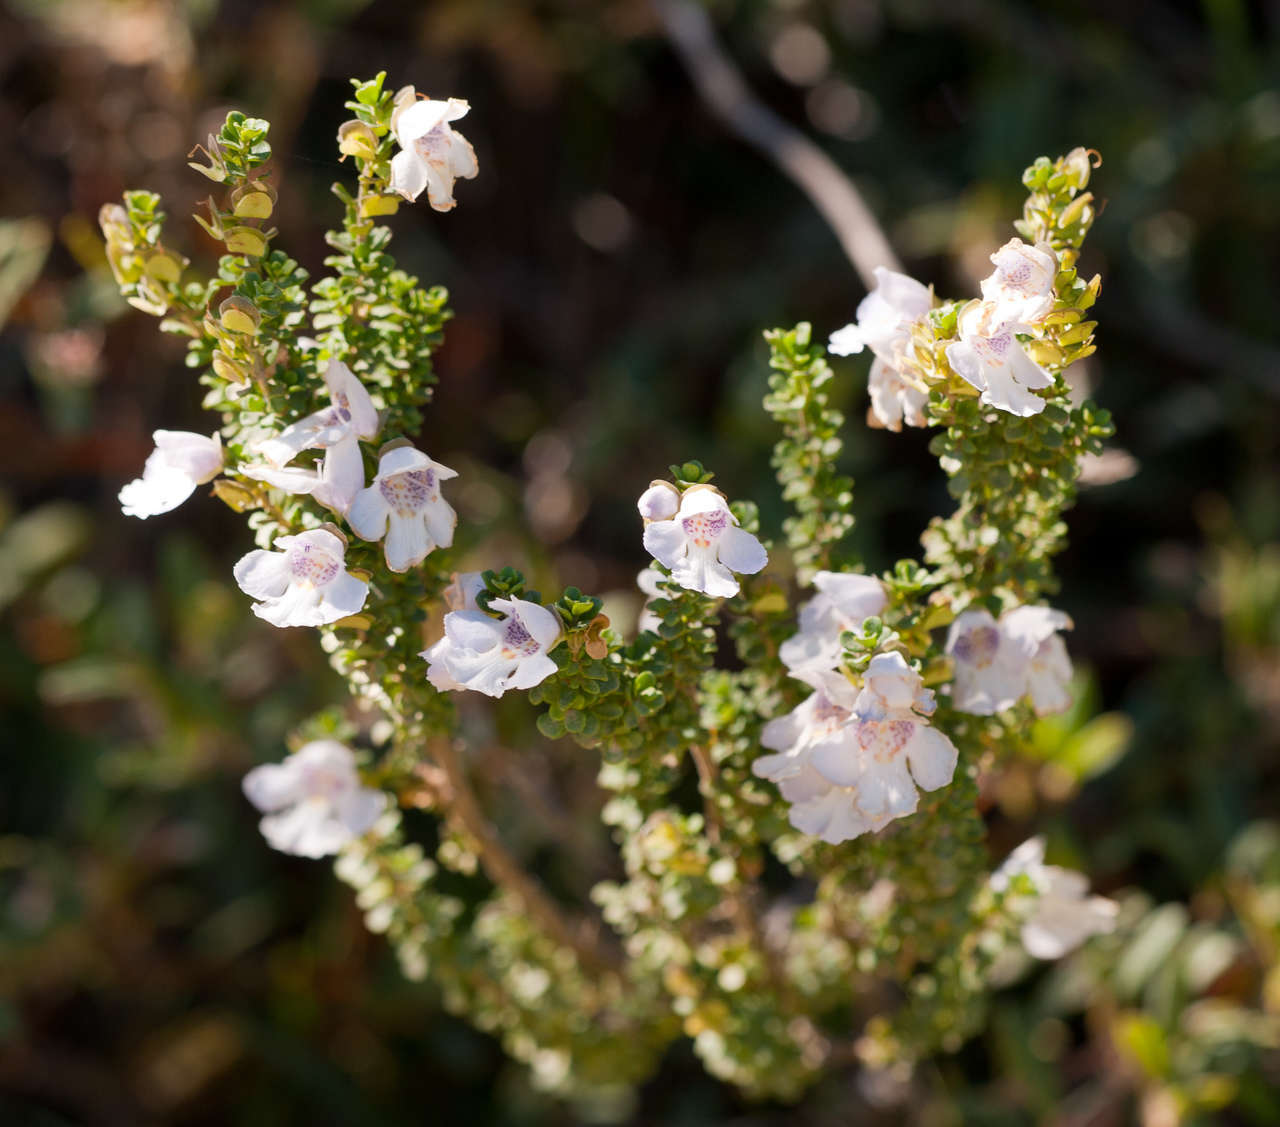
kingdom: Plantae
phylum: Tracheophyta
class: Magnoliopsida
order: Lamiales
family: Lamiaceae
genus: Prostanthera
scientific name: Prostanthera cuneata
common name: Alpine mintbush
